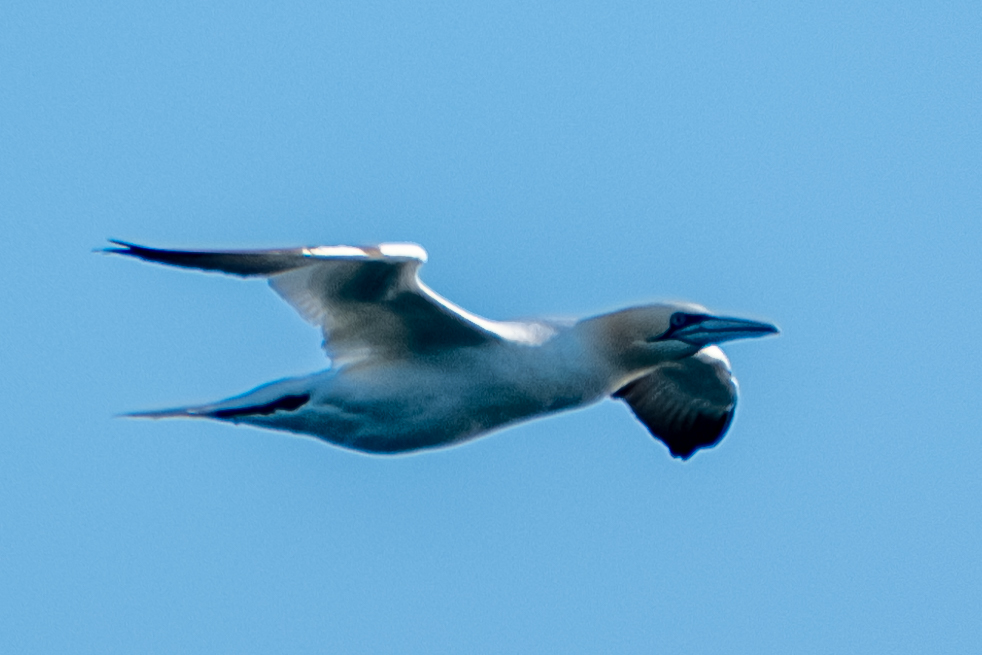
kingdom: Animalia
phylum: Chordata
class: Aves
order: Suliformes
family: Sulidae
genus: Morus
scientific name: Morus bassanus
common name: Northern gannet
